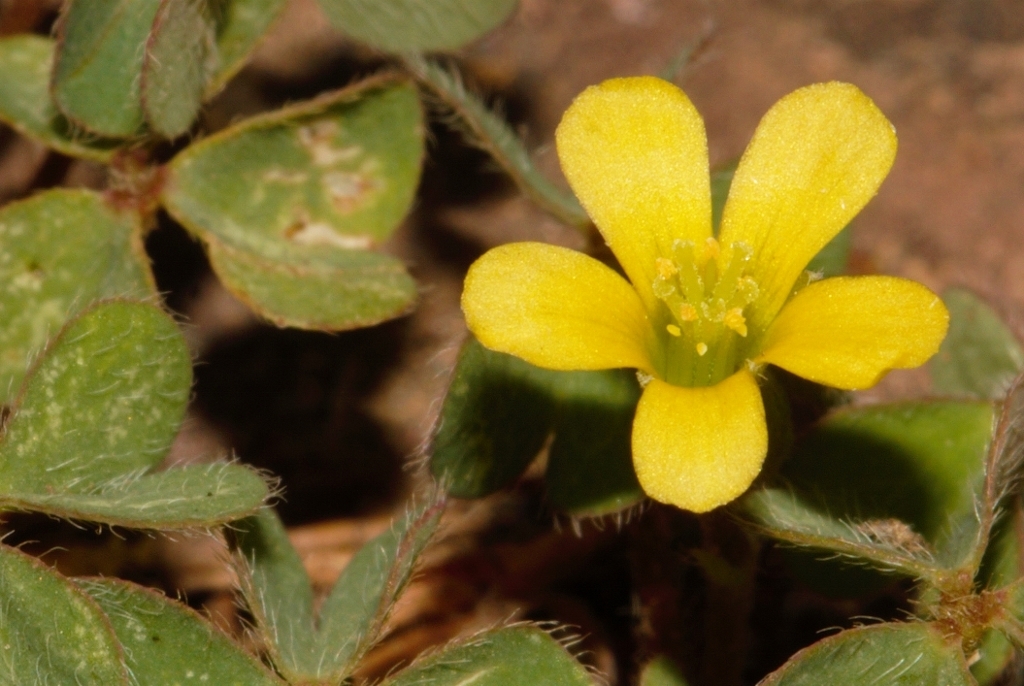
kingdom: Plantae
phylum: Tracheophyta
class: Magnoliopsida
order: Oxalidales
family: Oxalidaceae
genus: Oxalis
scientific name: Oxalis corniculata
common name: Procumbent yellow-sorrel
